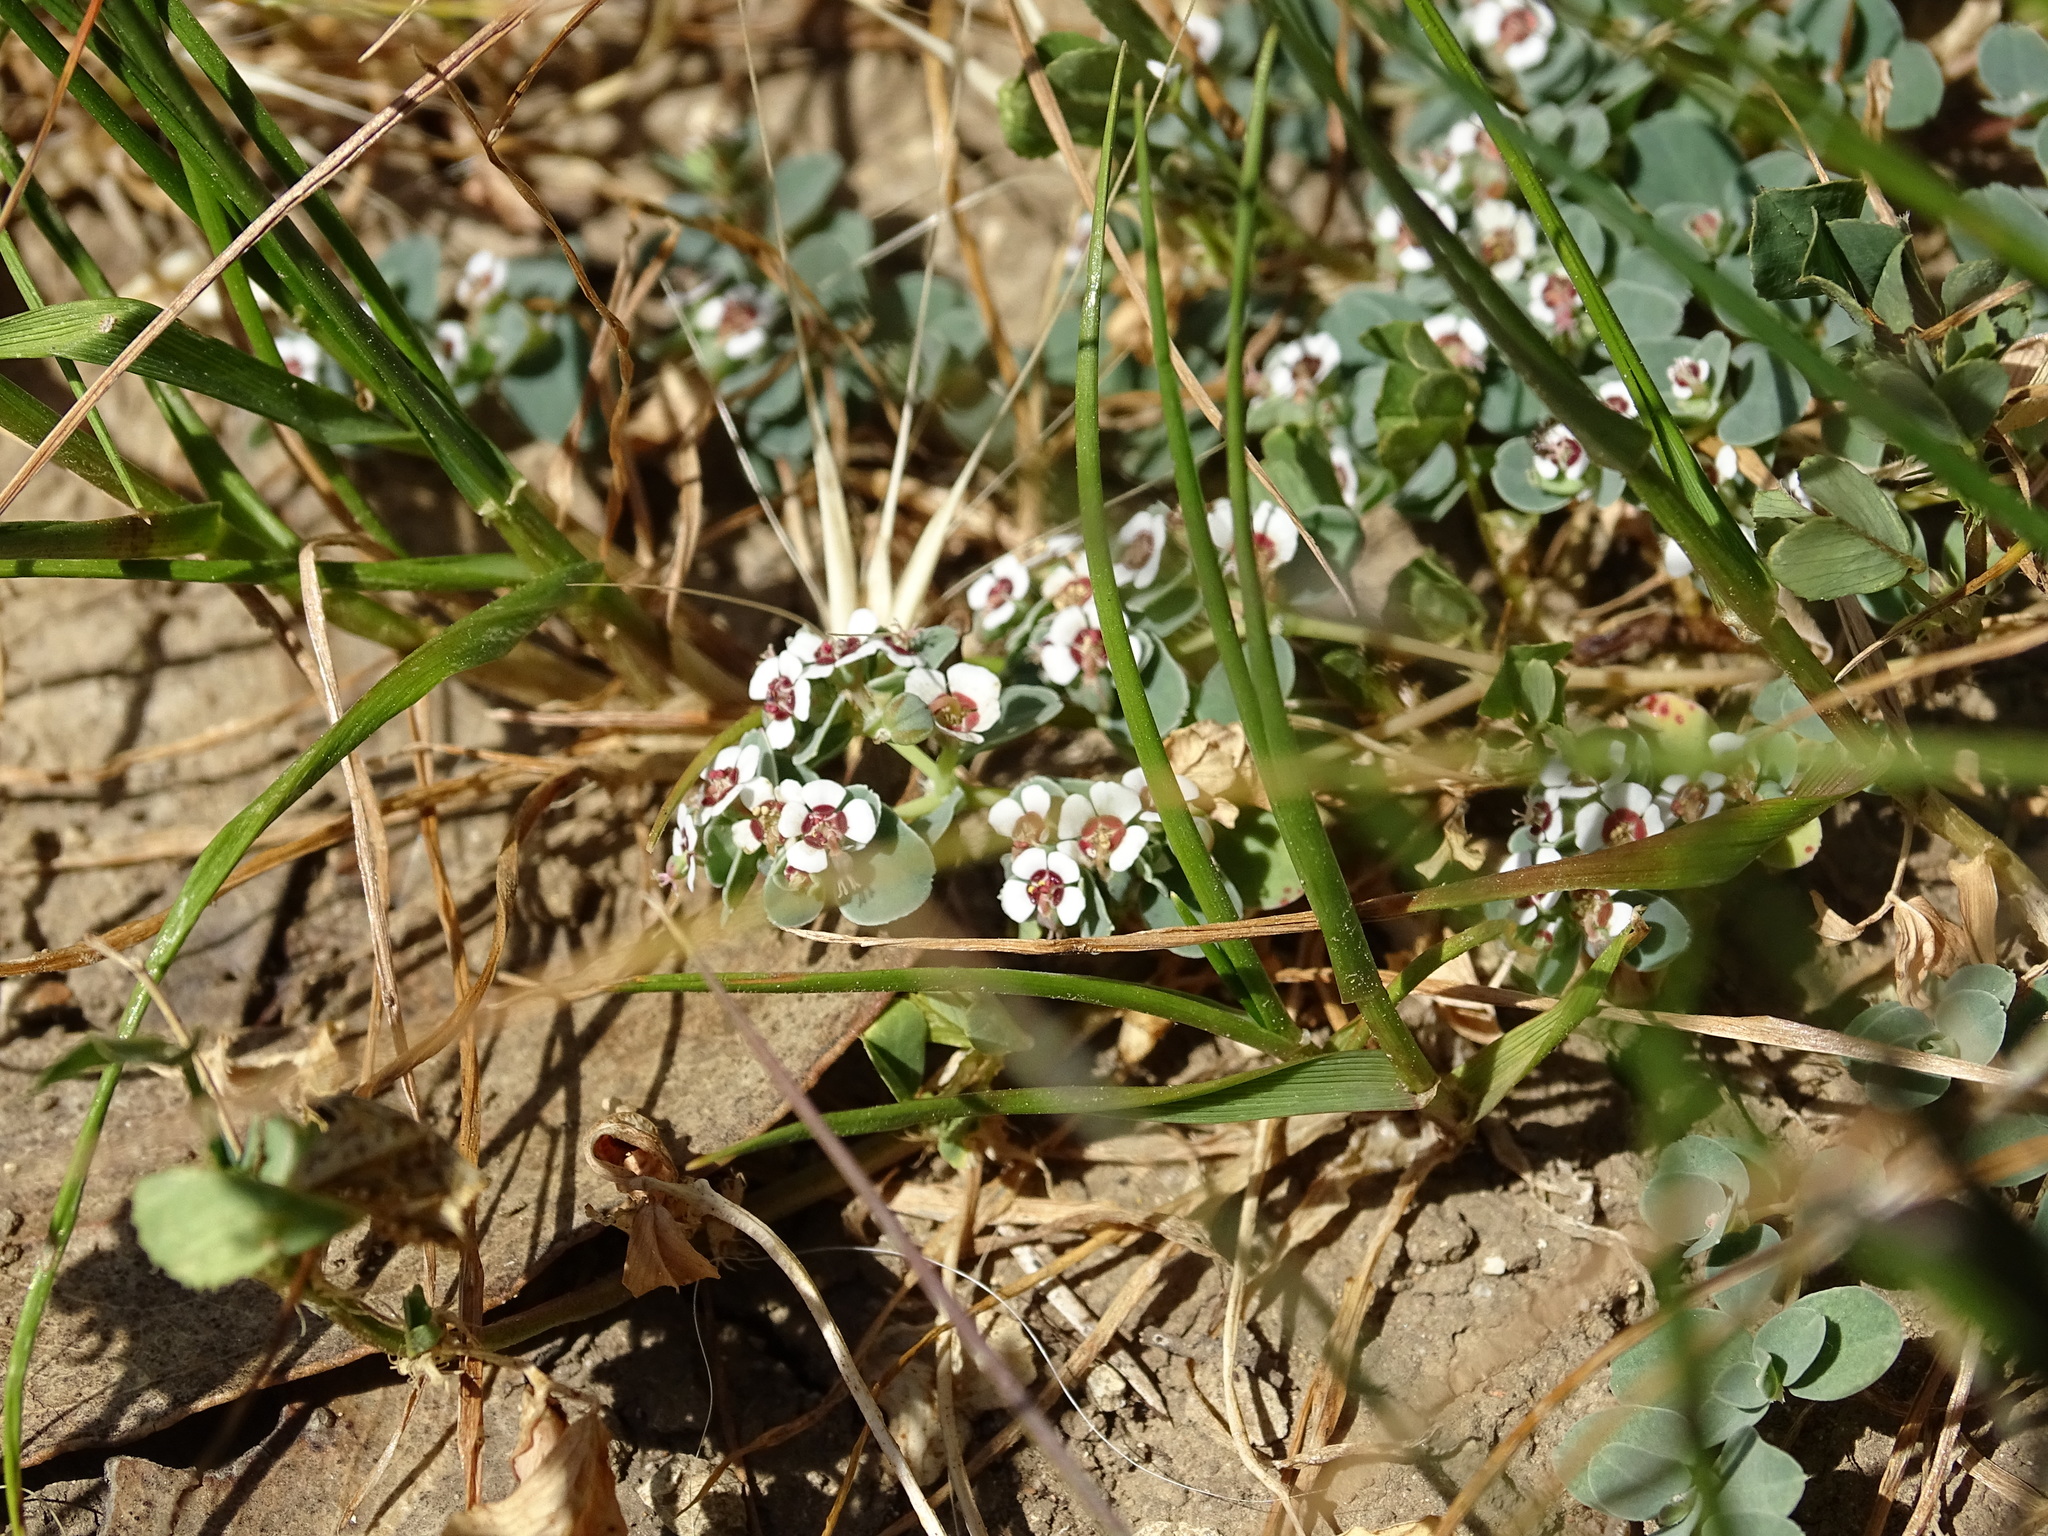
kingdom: Plantae
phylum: Tracheophyta
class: Magnoliopsida
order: Malpighiales
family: Euphorbiaceae
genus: Euphorbia
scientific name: Euphorbia albomarginata
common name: Whitemargin sandmat
